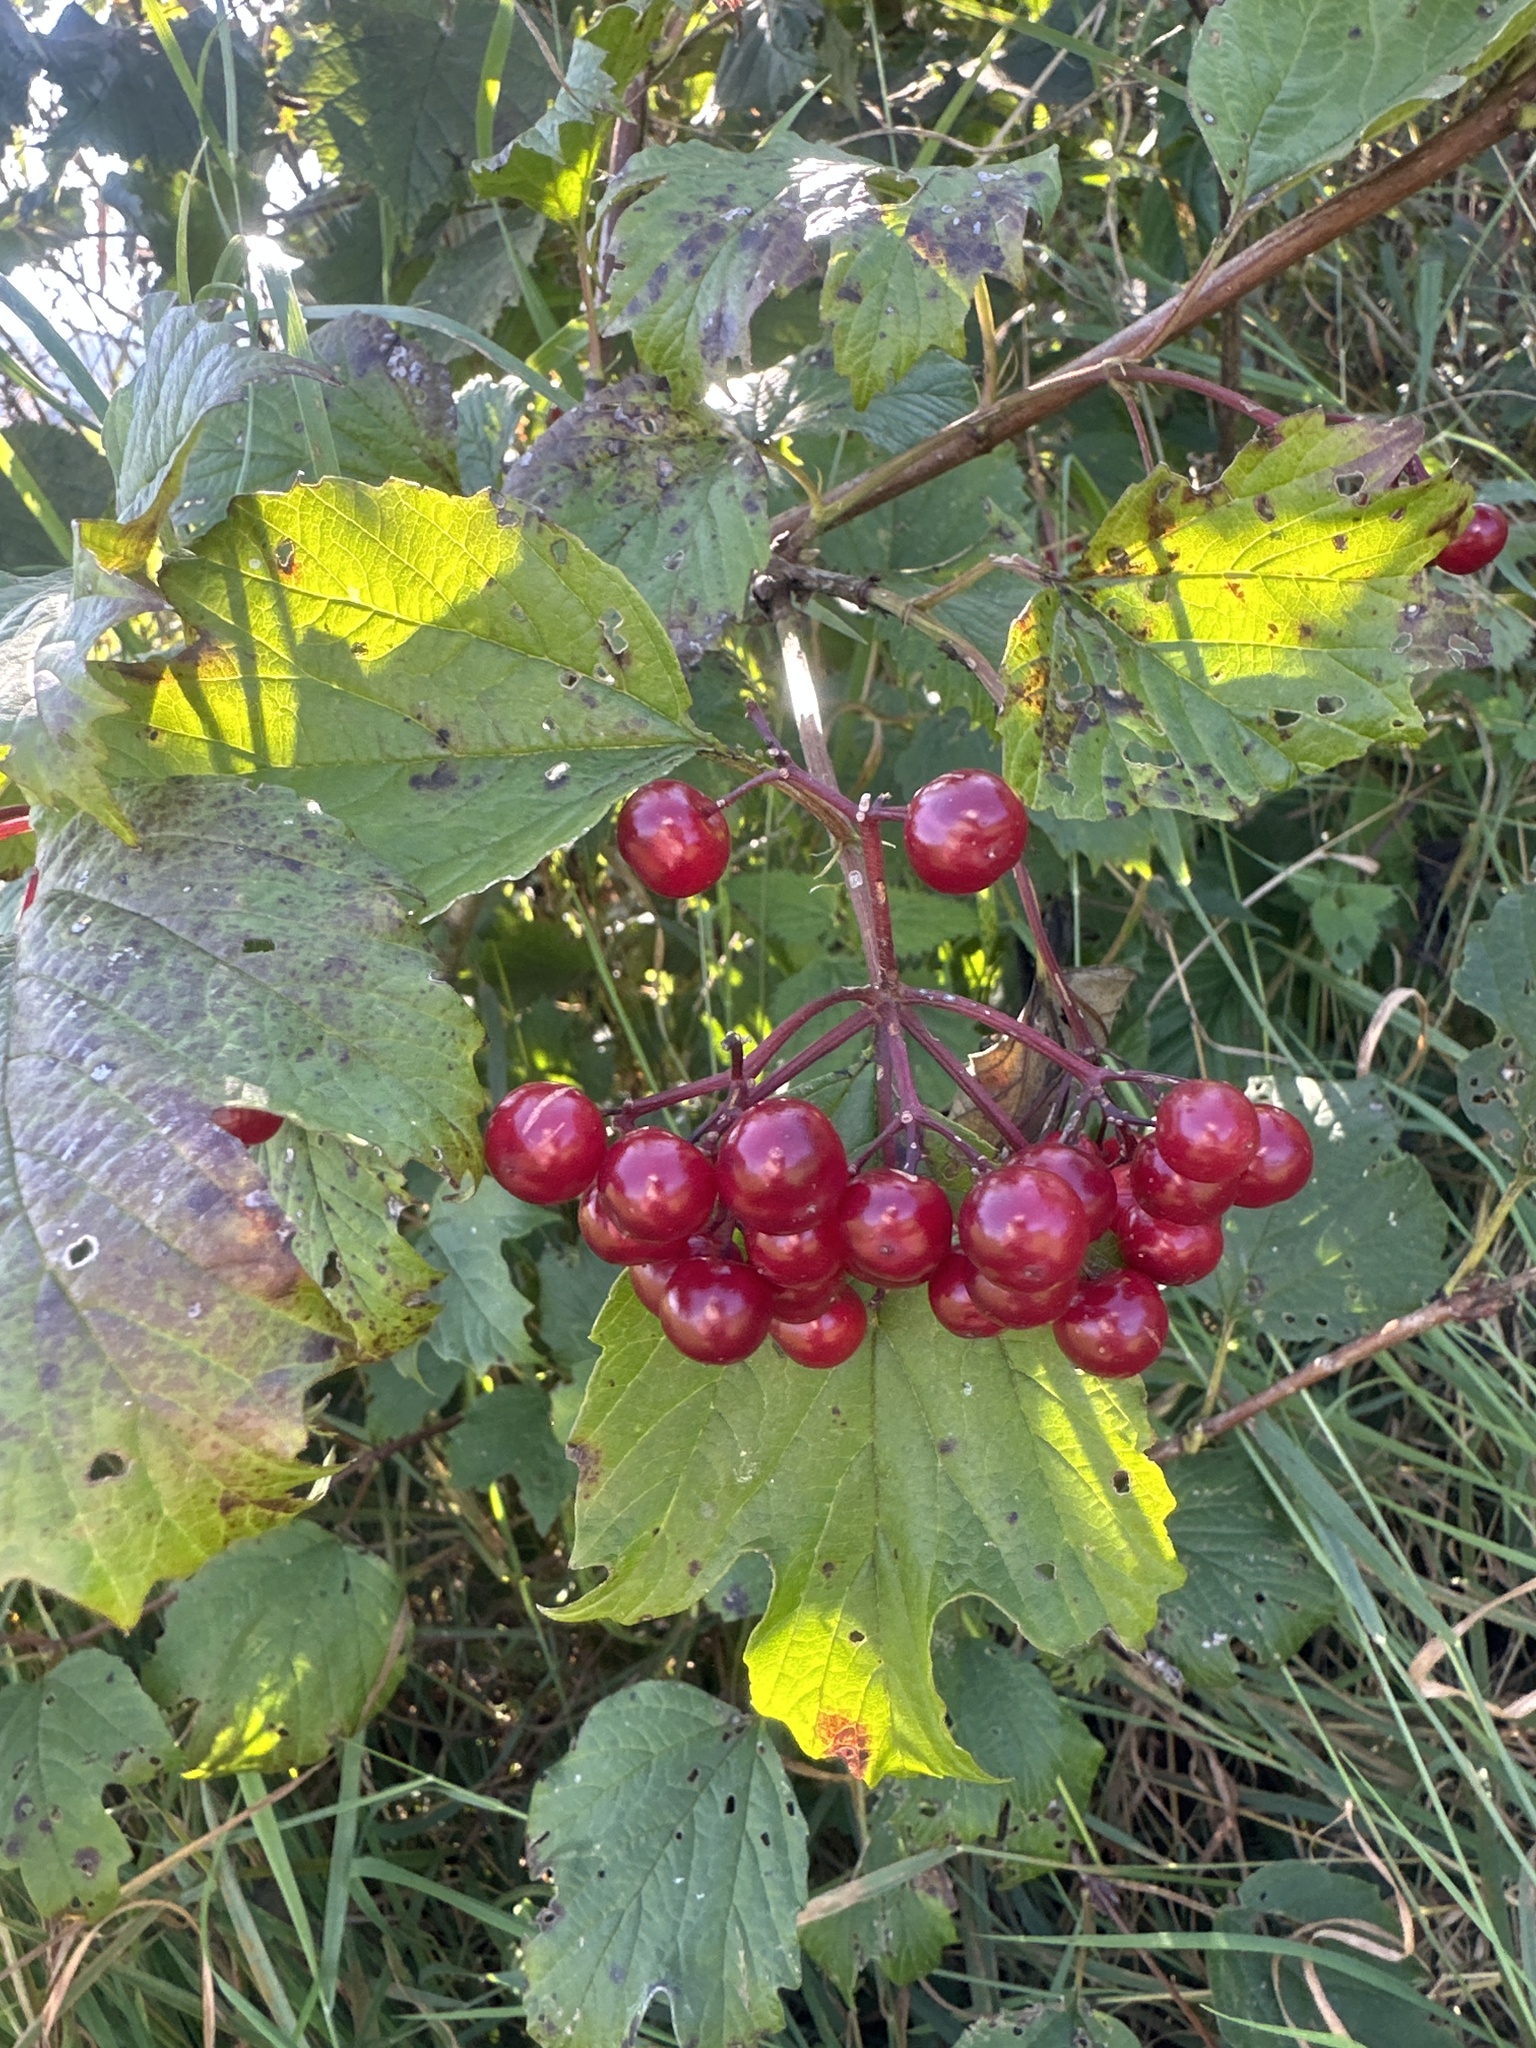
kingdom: Plantae
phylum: Tracheophyta
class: Magnoliopsida
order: Dipsacales
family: Viburnaceae
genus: Viburnum
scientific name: Viburnum opulus
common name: Guelder-rose
